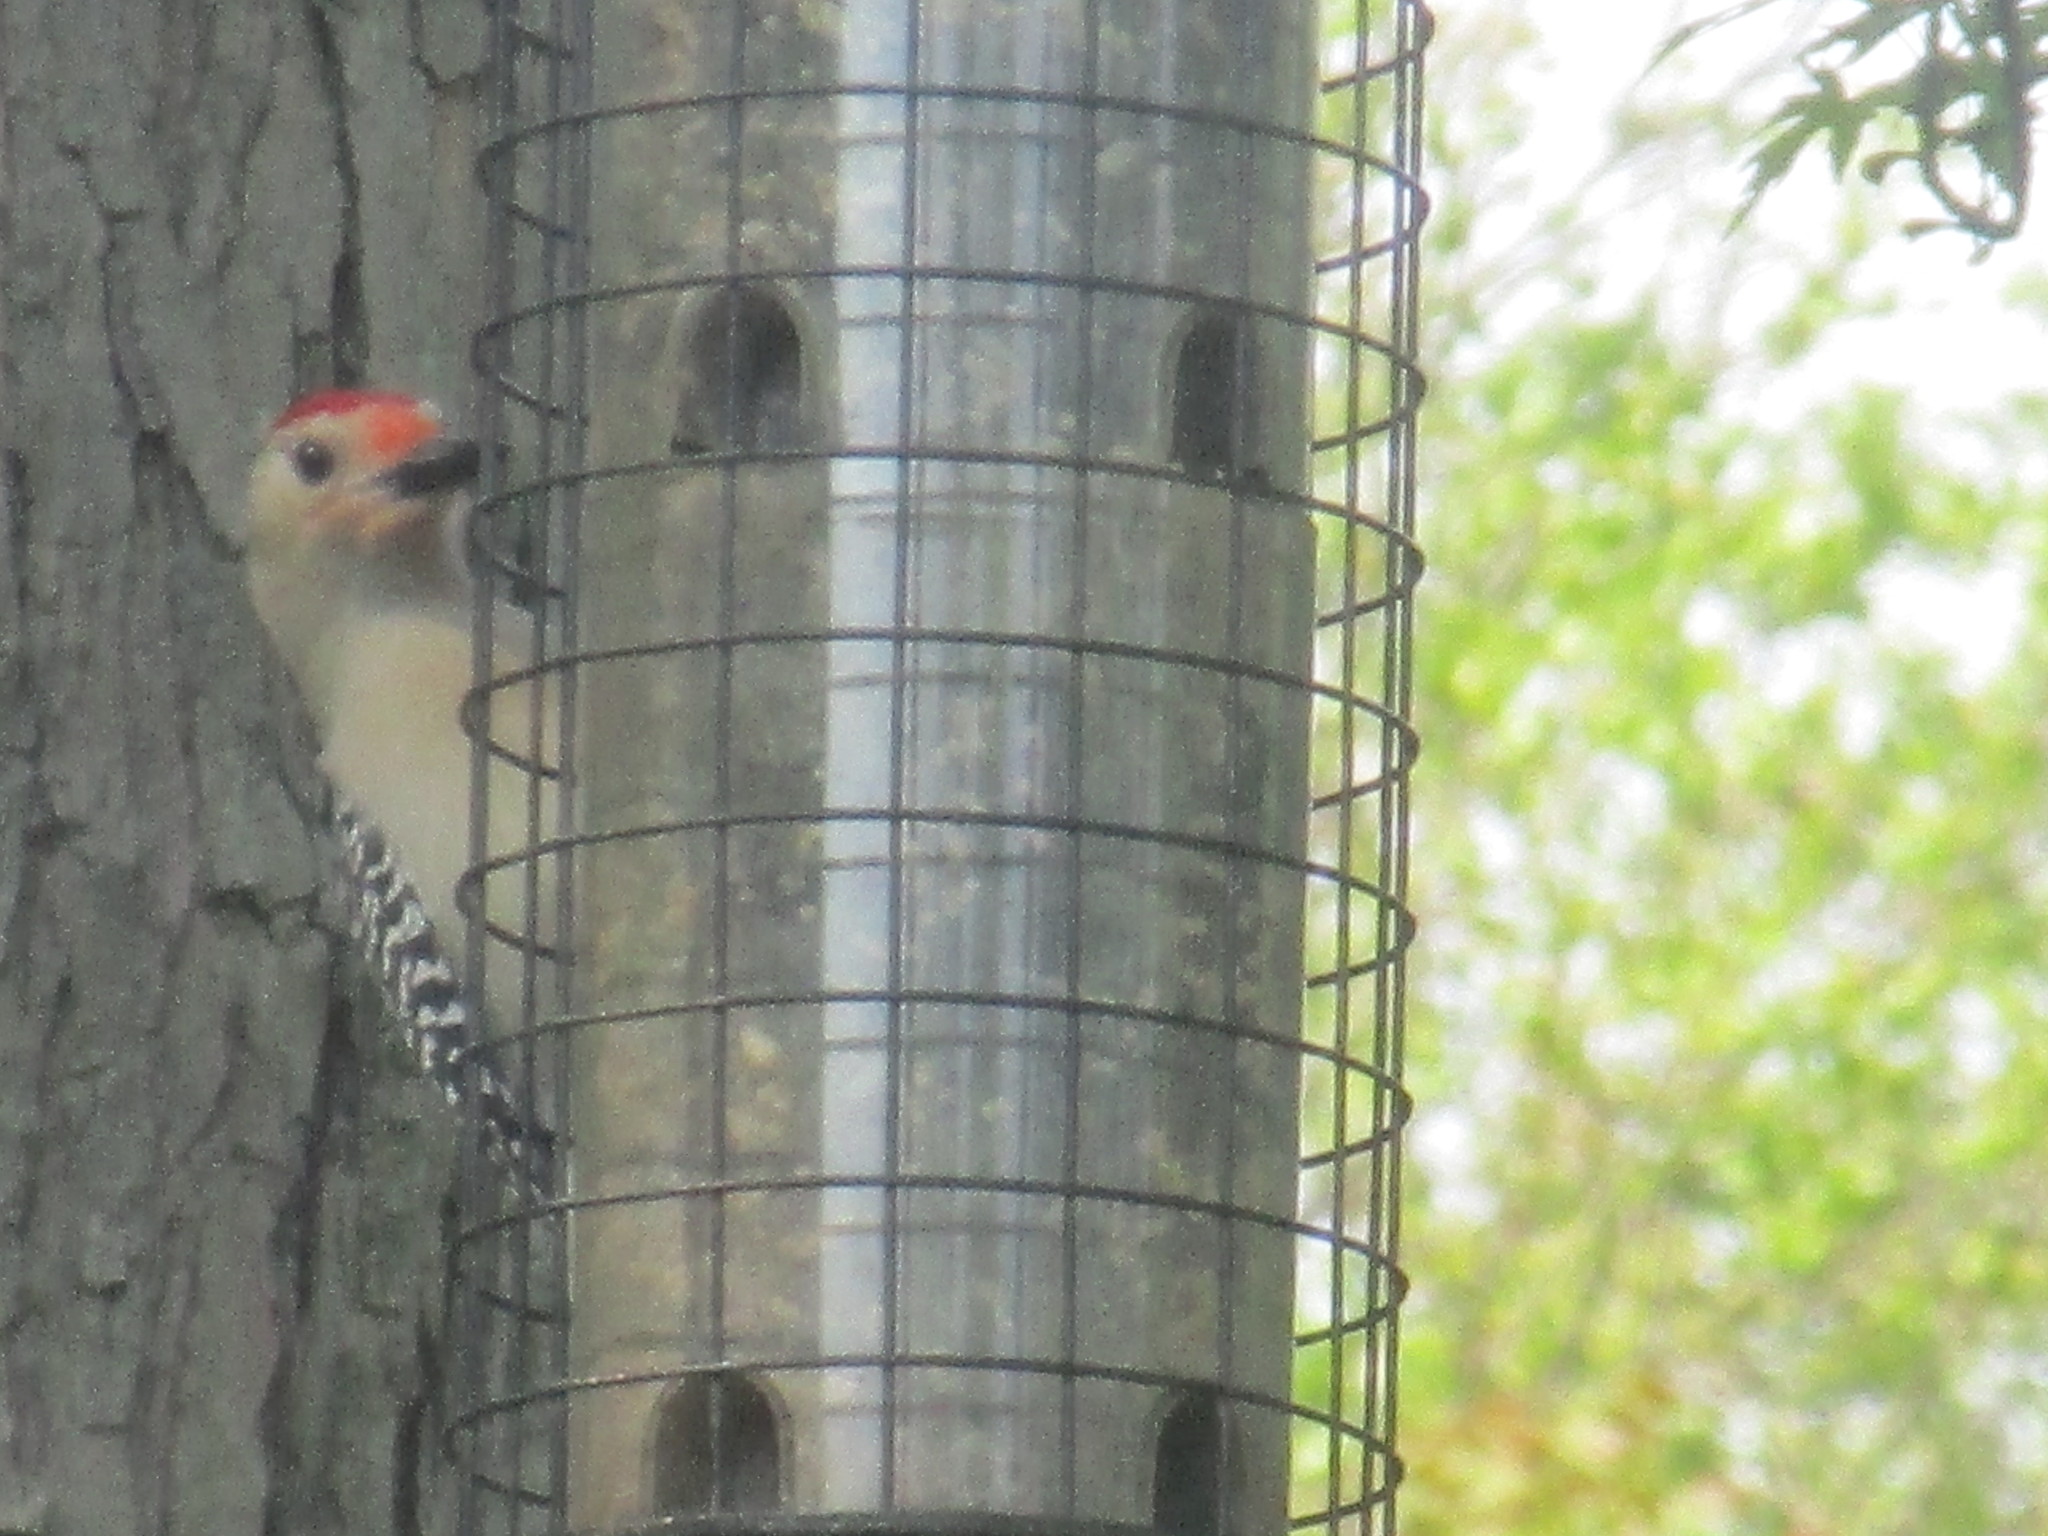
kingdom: Animalia
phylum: Chordata
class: Aves
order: Piciformes
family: Picidae
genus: Melanerpes
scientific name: Melanerpes carolinus
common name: Red-bellied woodpecker
